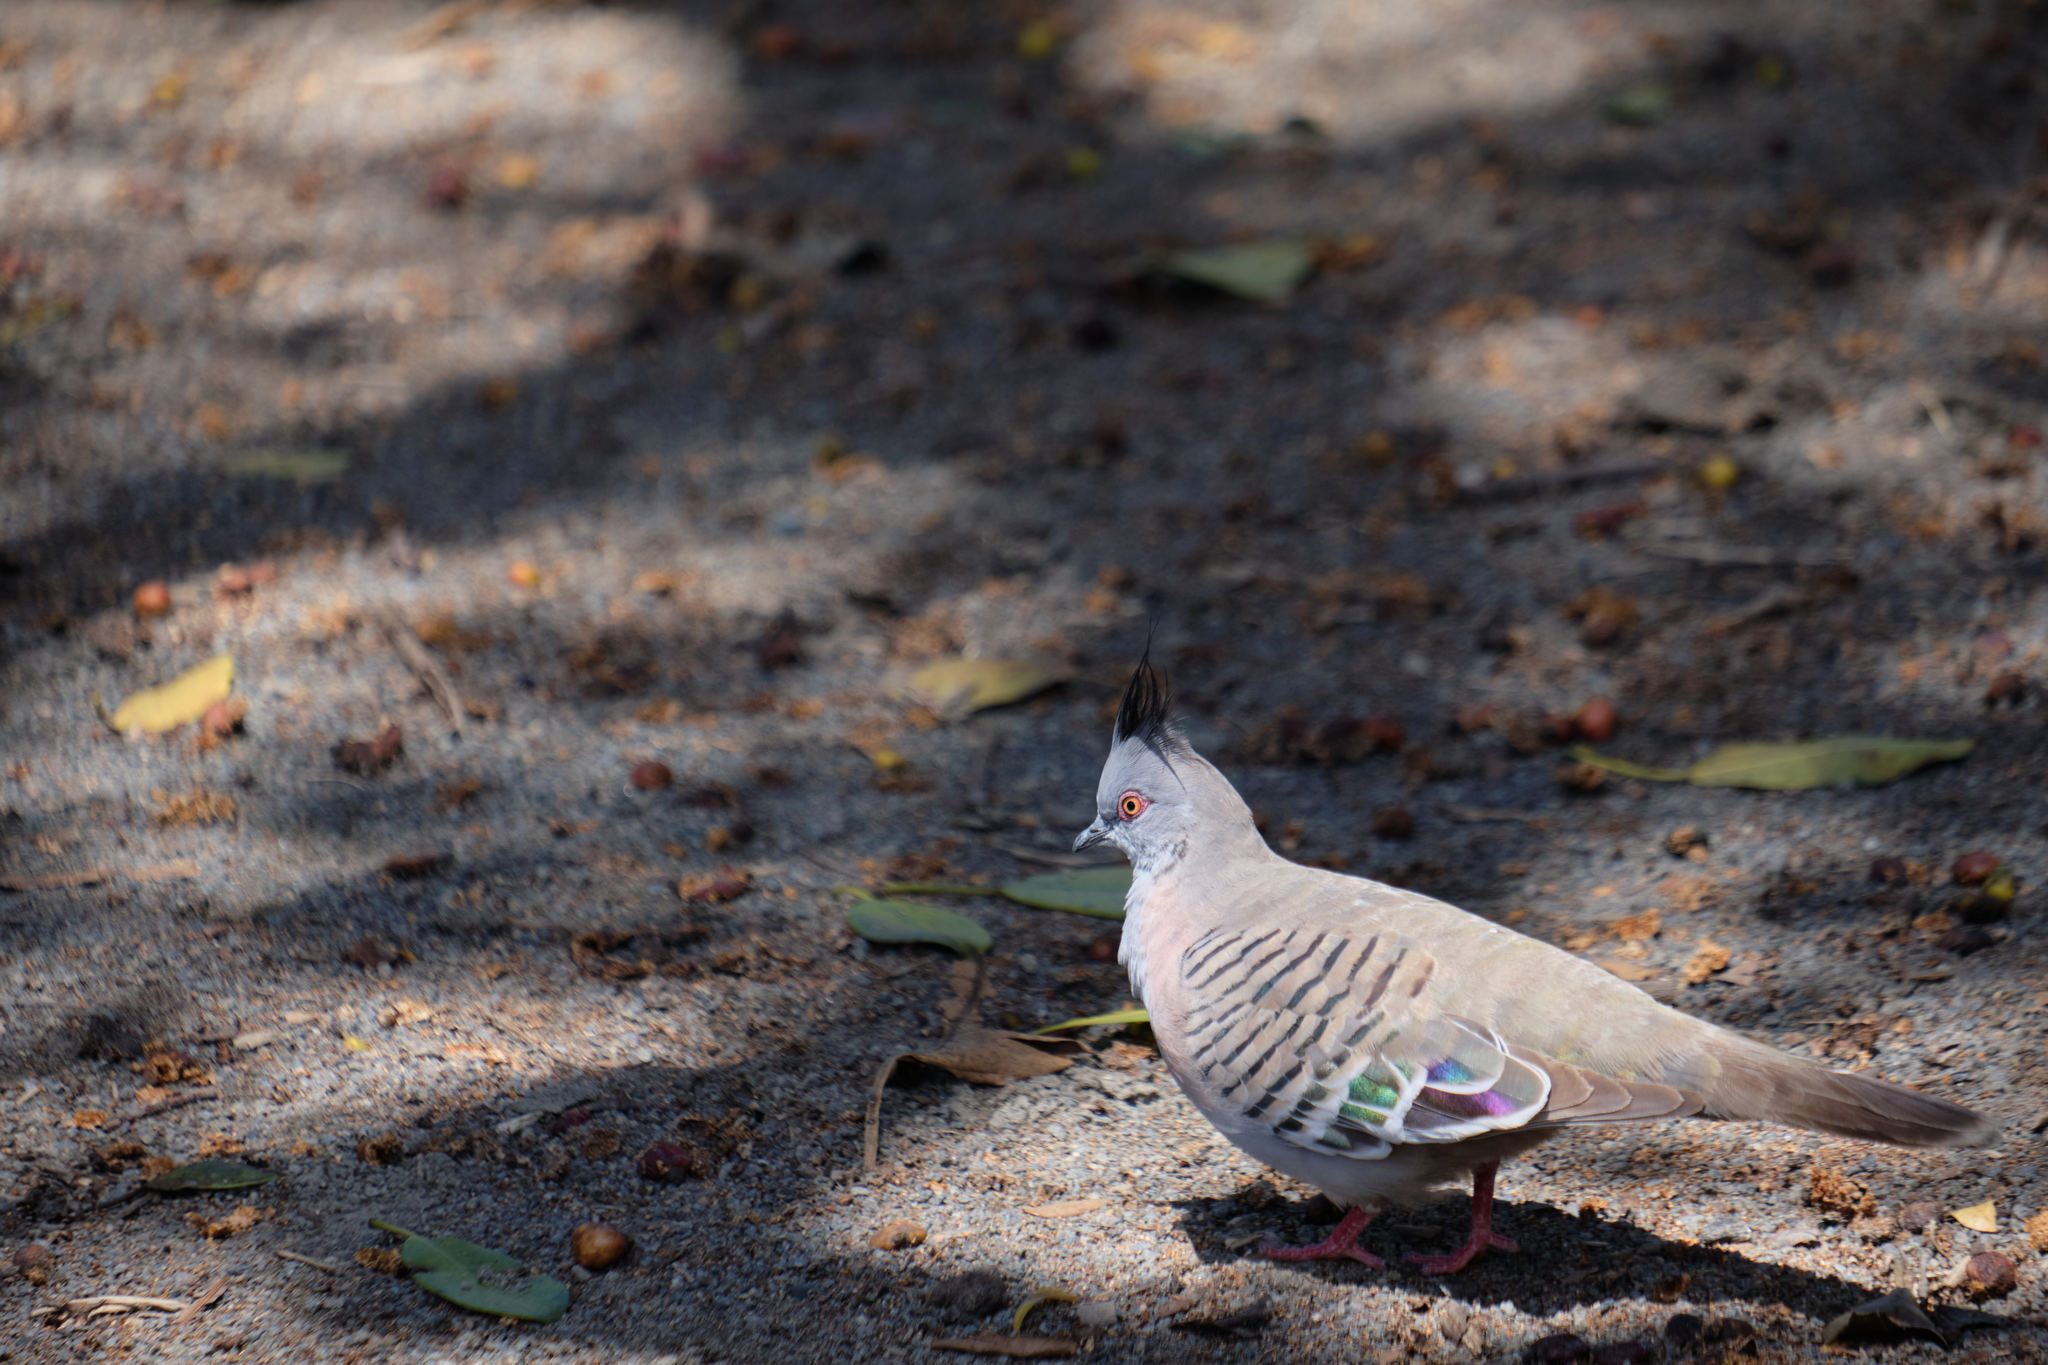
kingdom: Animalia
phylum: Chordata
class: Aves
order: Columbiformes
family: Columbidae
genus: Ocyphaps
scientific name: Ocyphaps lophotes
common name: Crested pigeon
